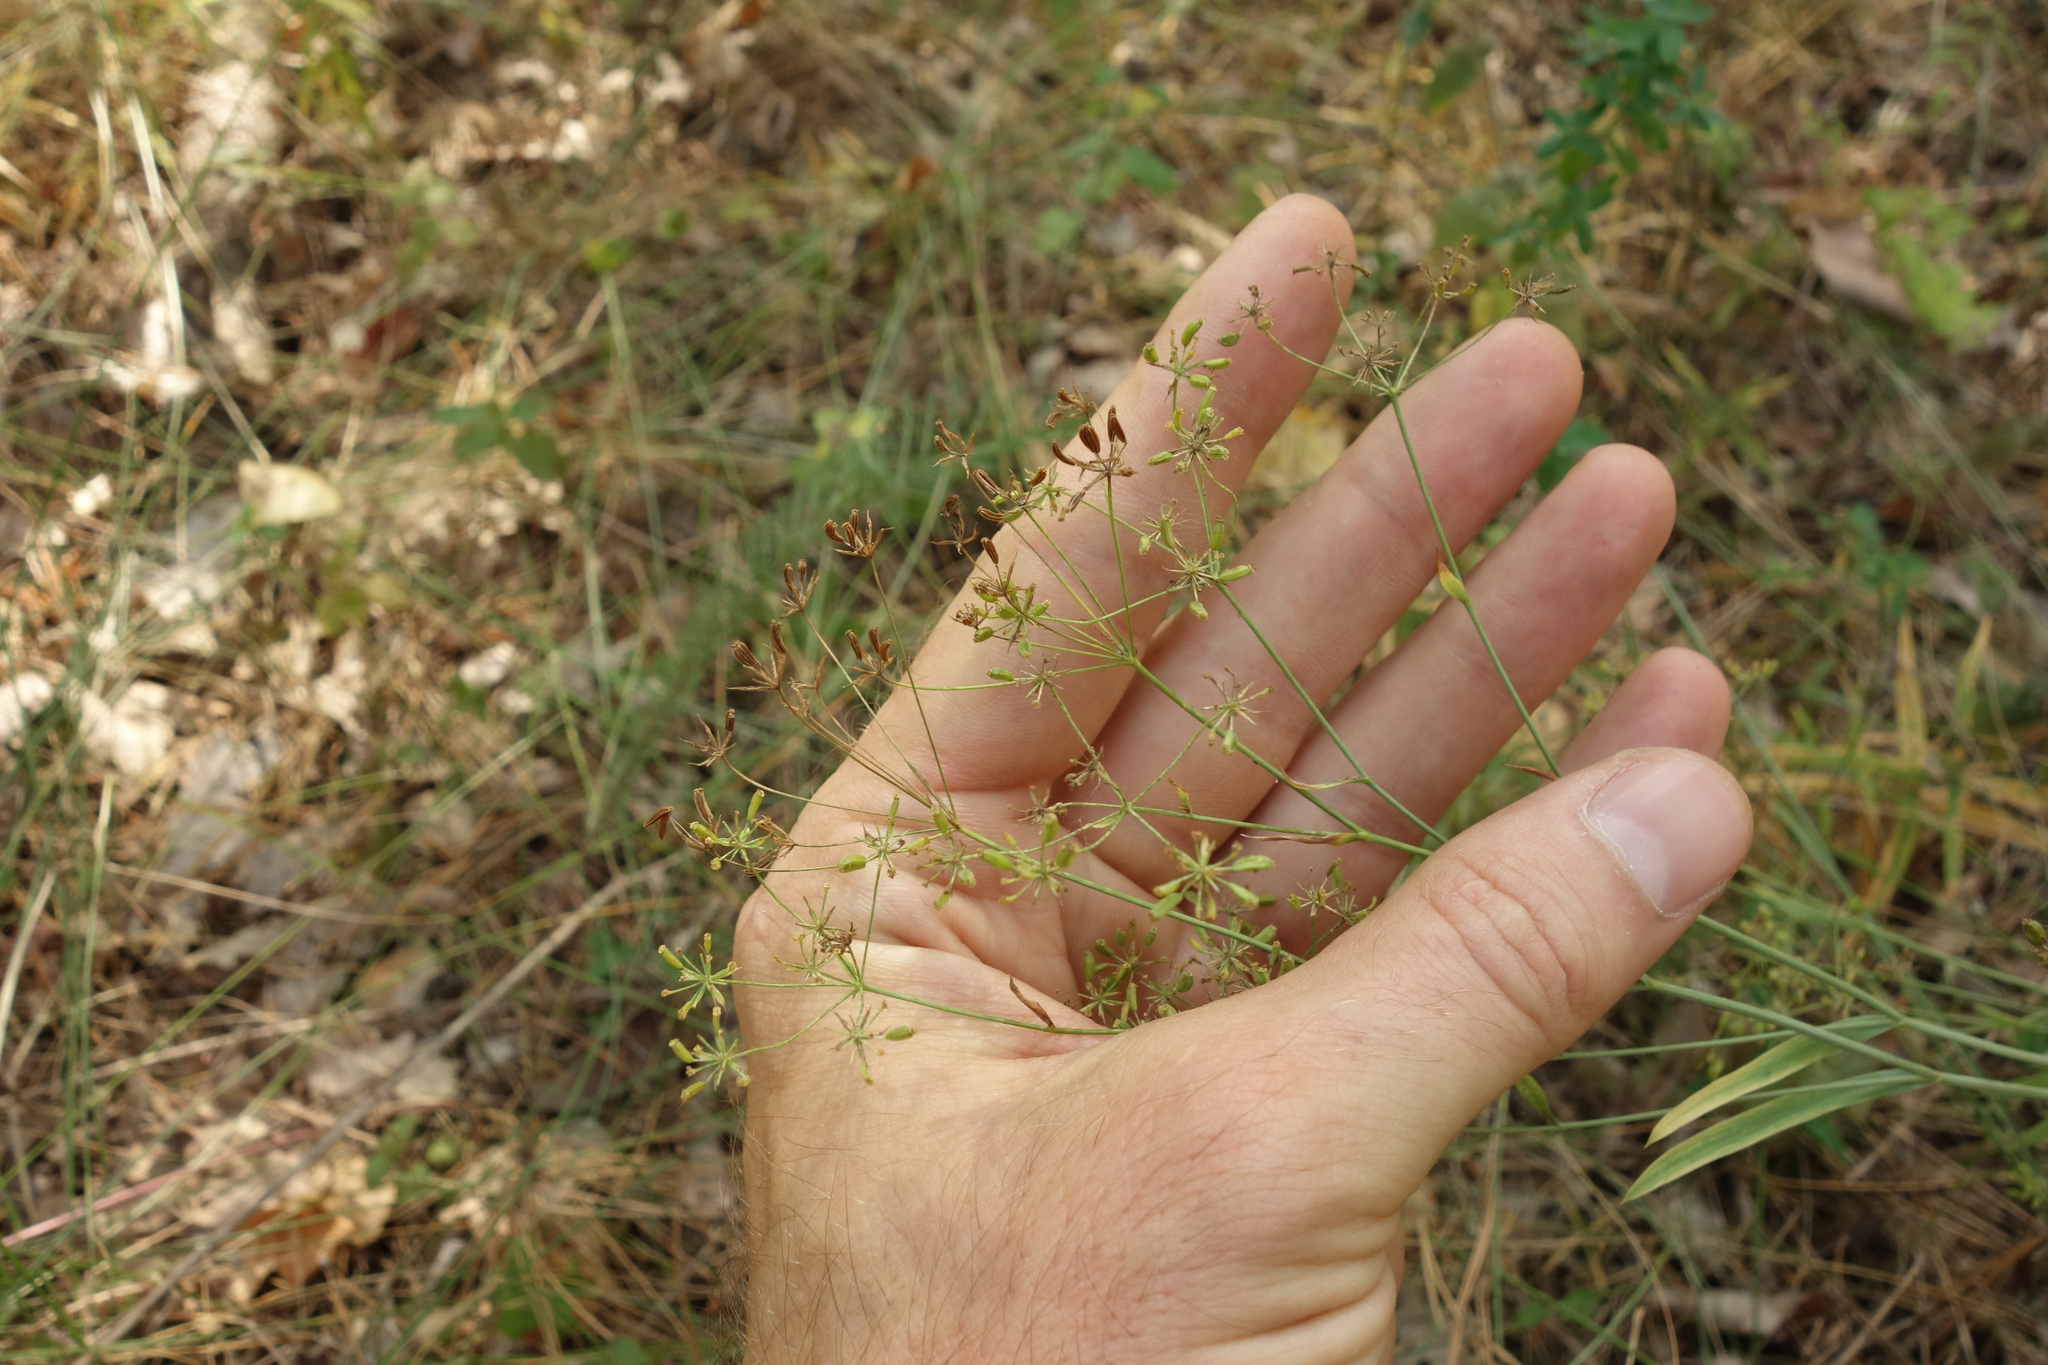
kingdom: Plantae
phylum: Tracheophyta
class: Magnoliopsida
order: Apiales
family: Apiaceae
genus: Bupleurum
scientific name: Bupleurum falcatum
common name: Sickle-leaved hare's-ear
